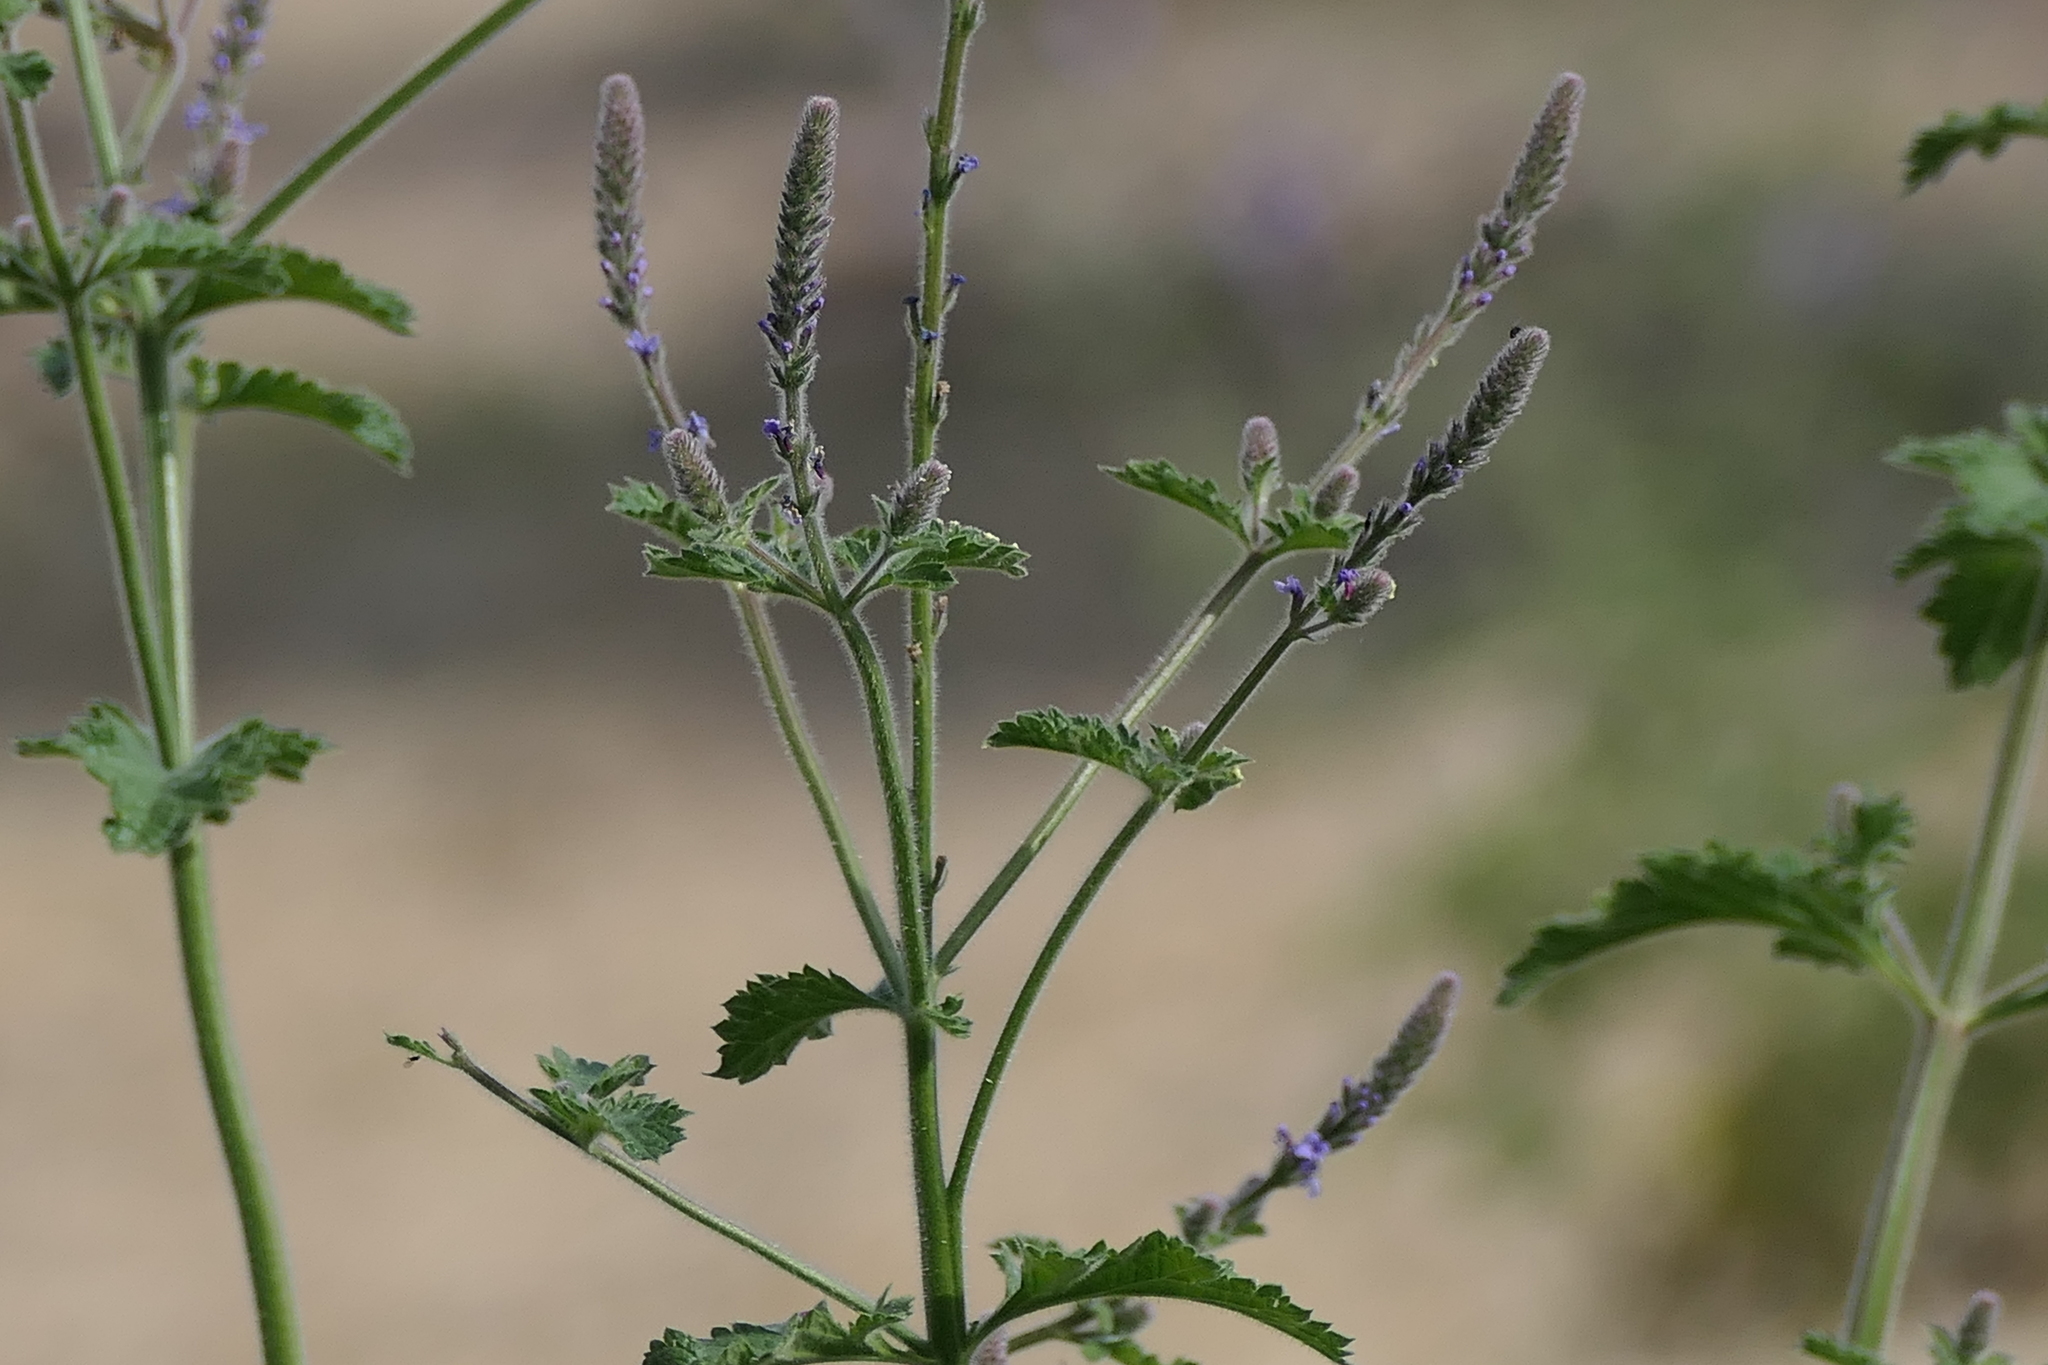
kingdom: Plantae
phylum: Tracheophyta
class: Magnoliopsida
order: Lamiales
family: Verbenaceae
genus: Verbena
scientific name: Verbena lasiostachys
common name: Vervain
